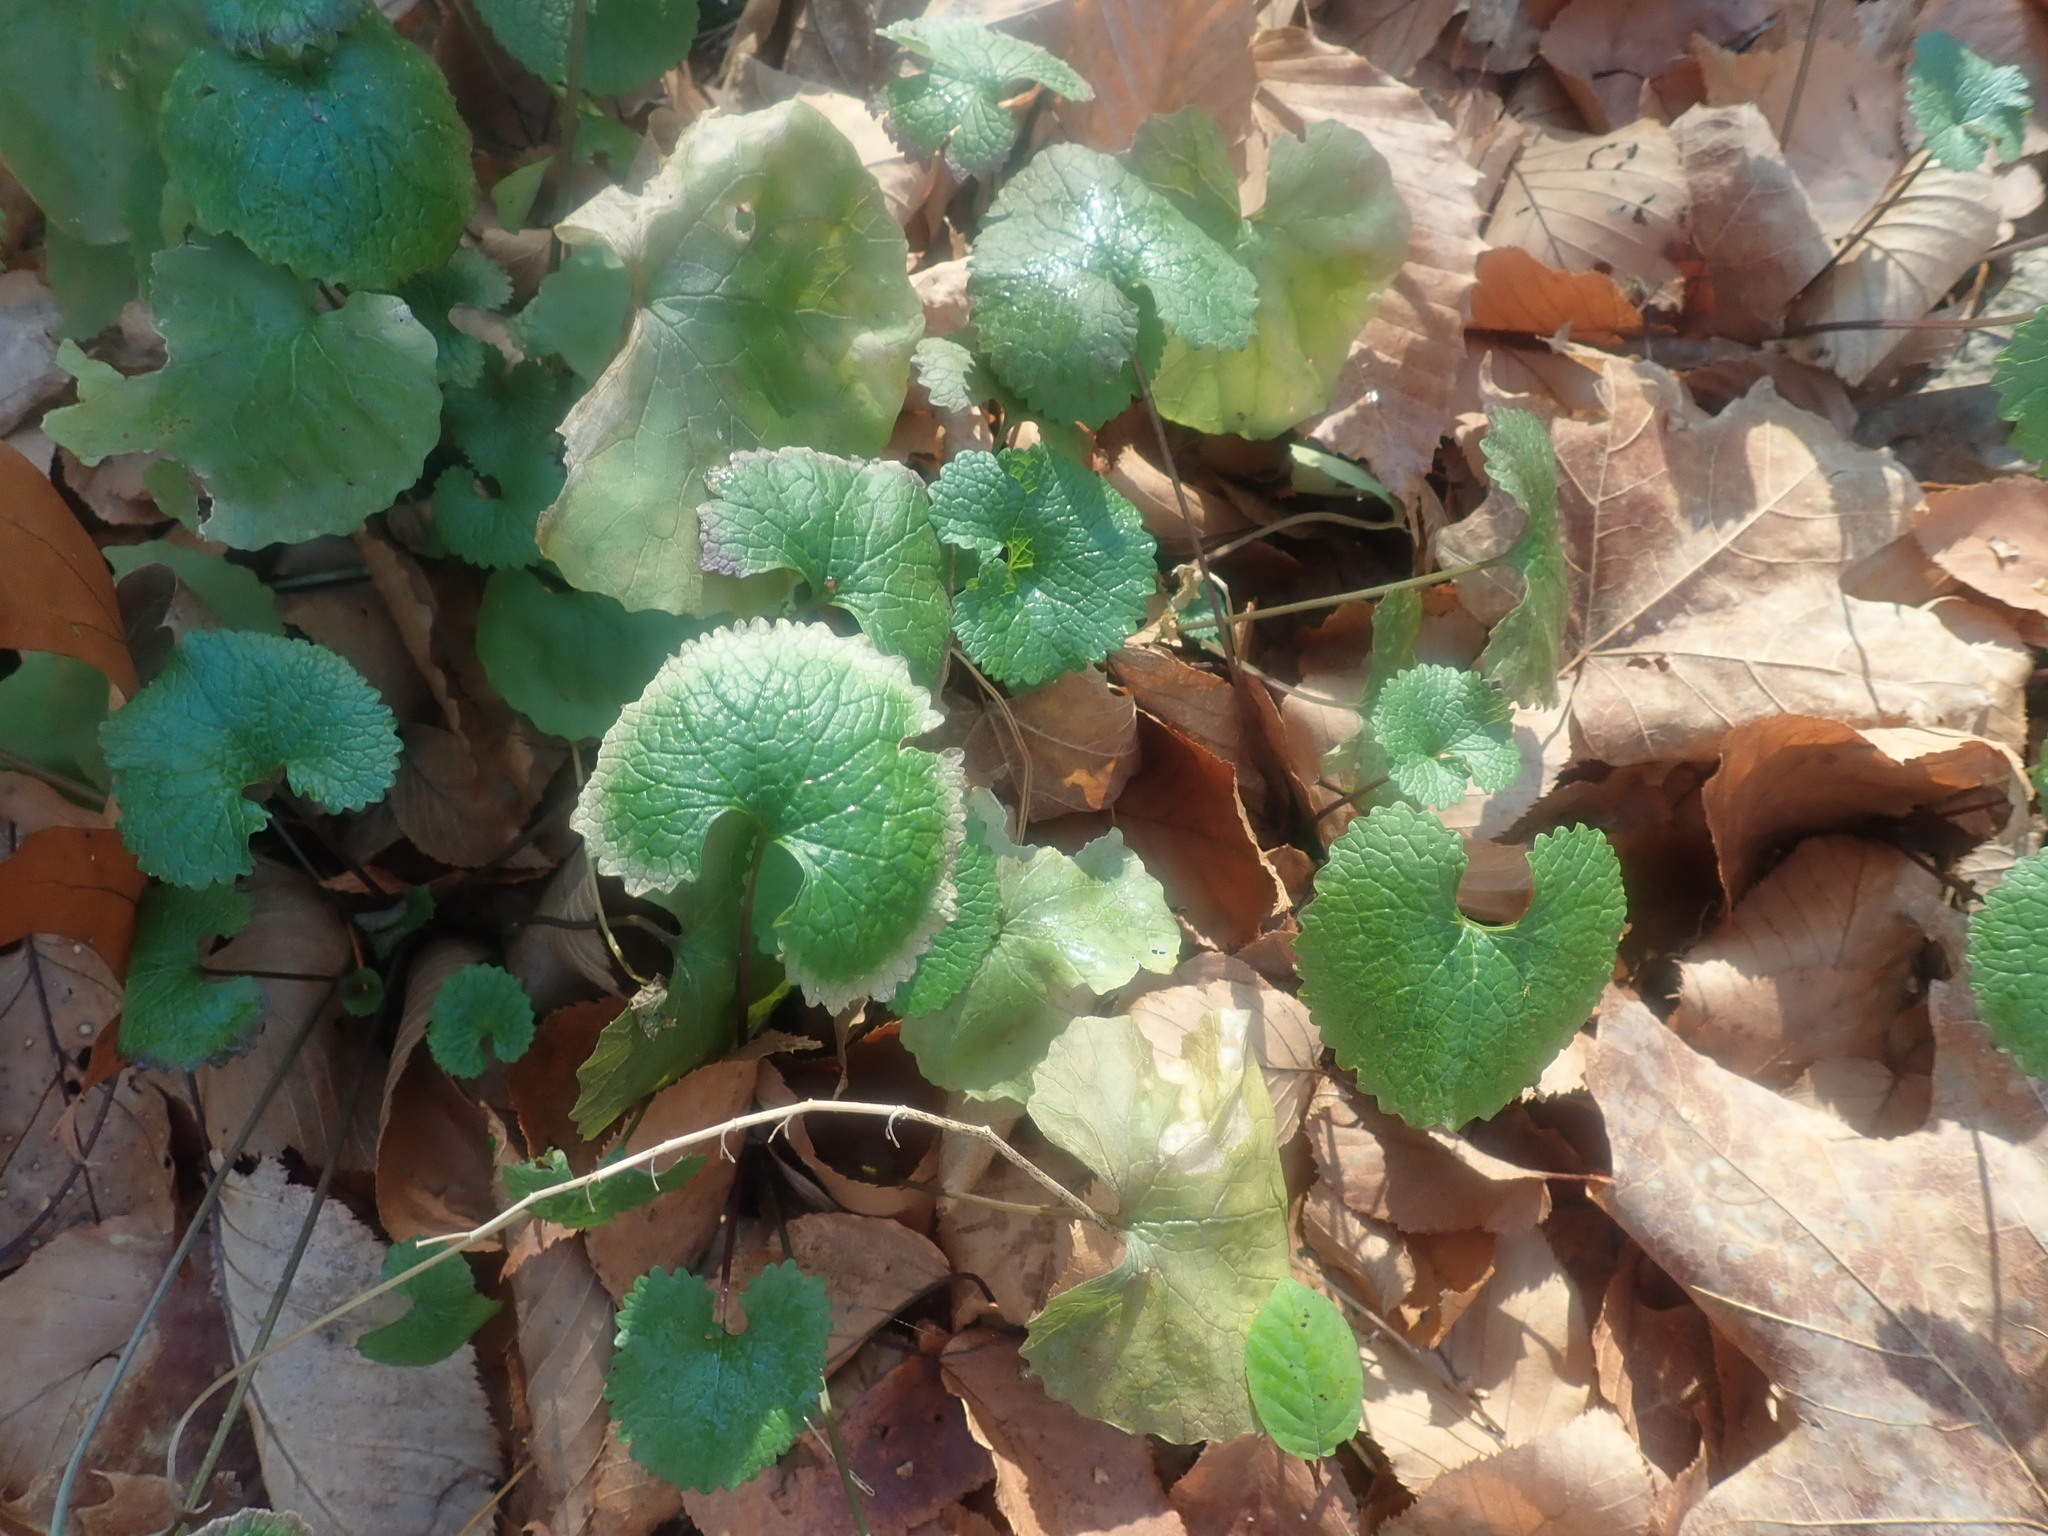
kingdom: Plantae
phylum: Tracheophyta
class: Magnoliopsida
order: Brassicales
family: Brassicaceae
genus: Alliaria
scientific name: Alliaria petiolata
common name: Garlic mustard
